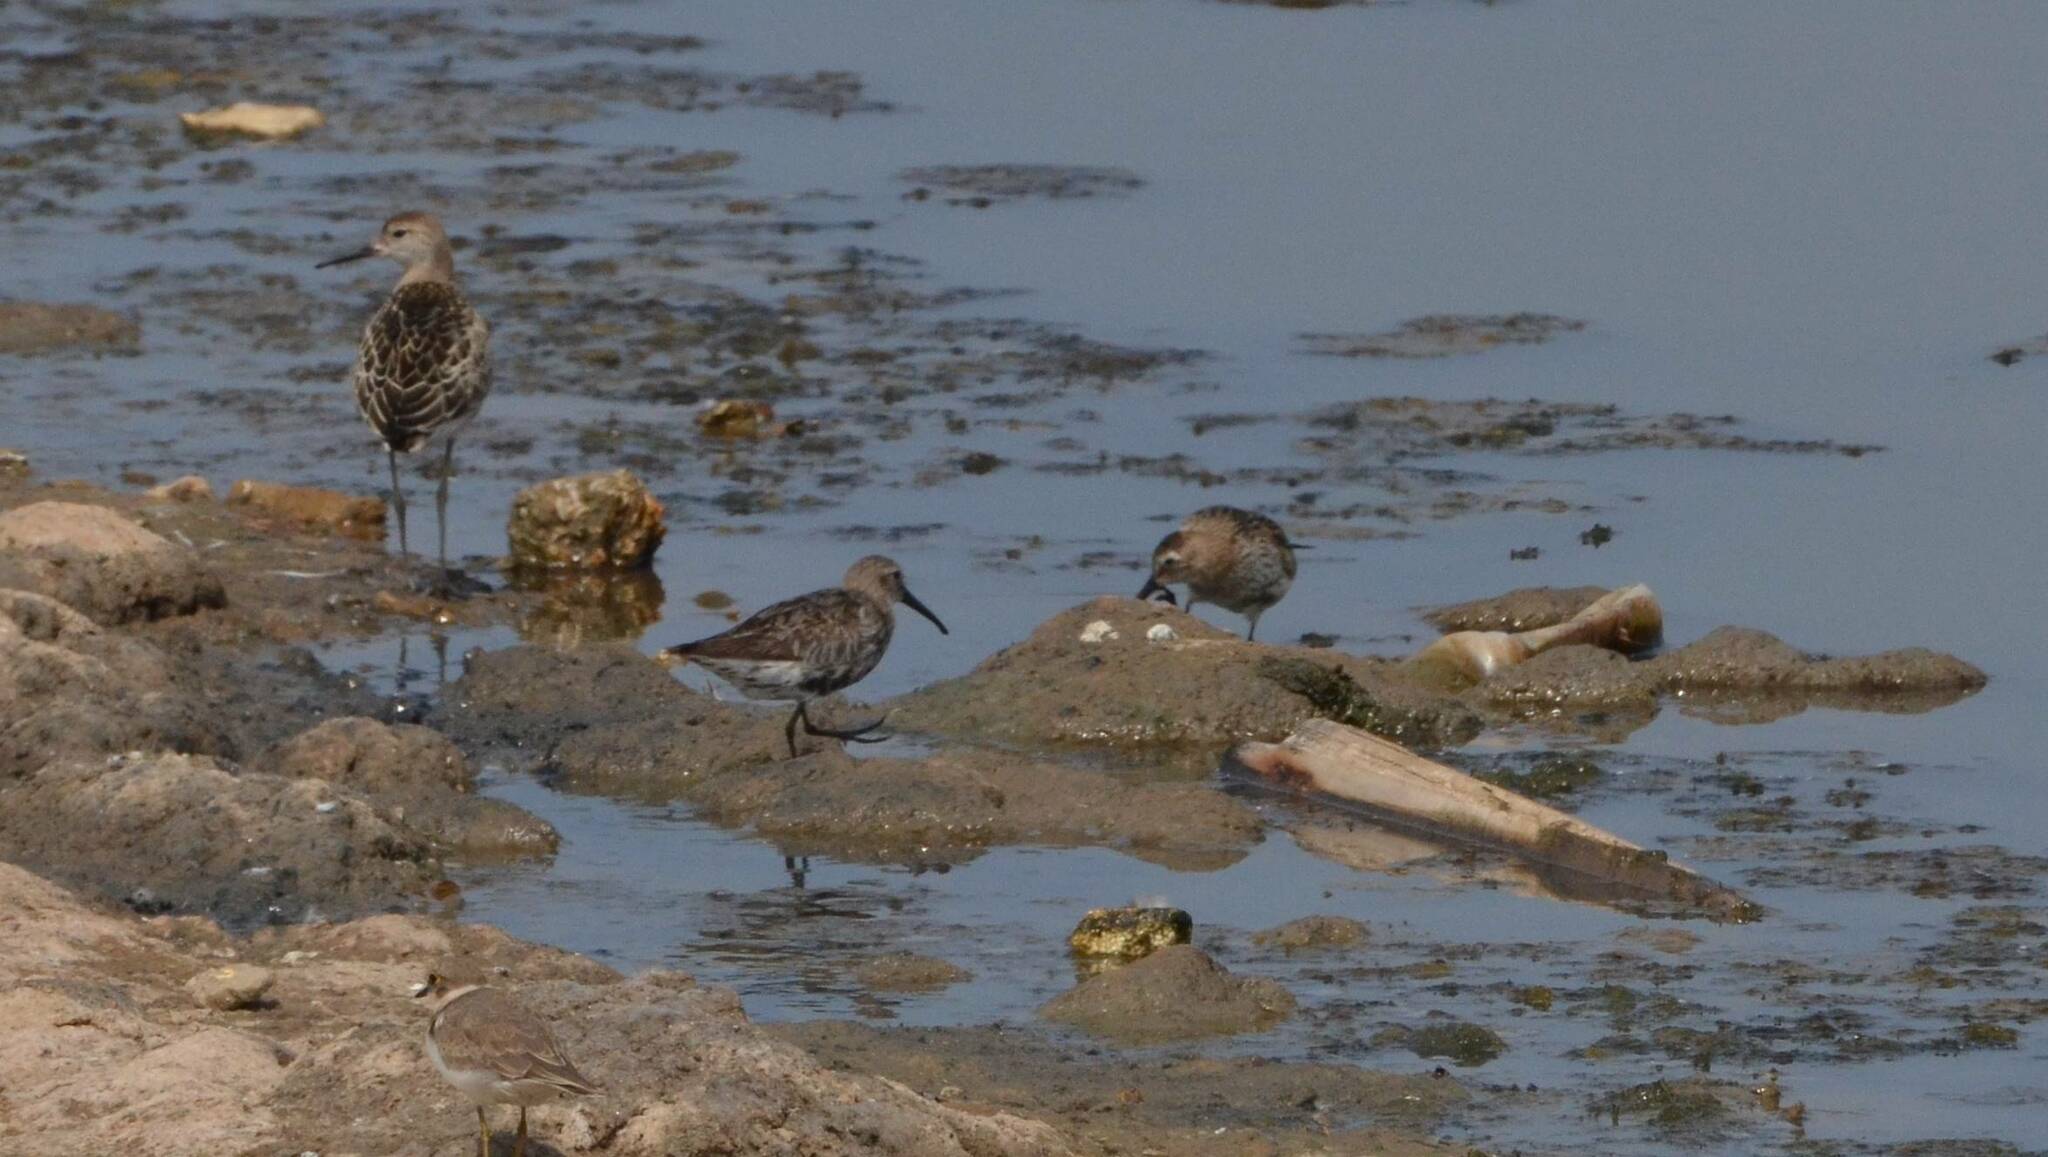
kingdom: Animalia
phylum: Chordata
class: Aves
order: Charadriiformes
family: Scolopacidae
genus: Calidris
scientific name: Calidris alpina
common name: Dunlin
